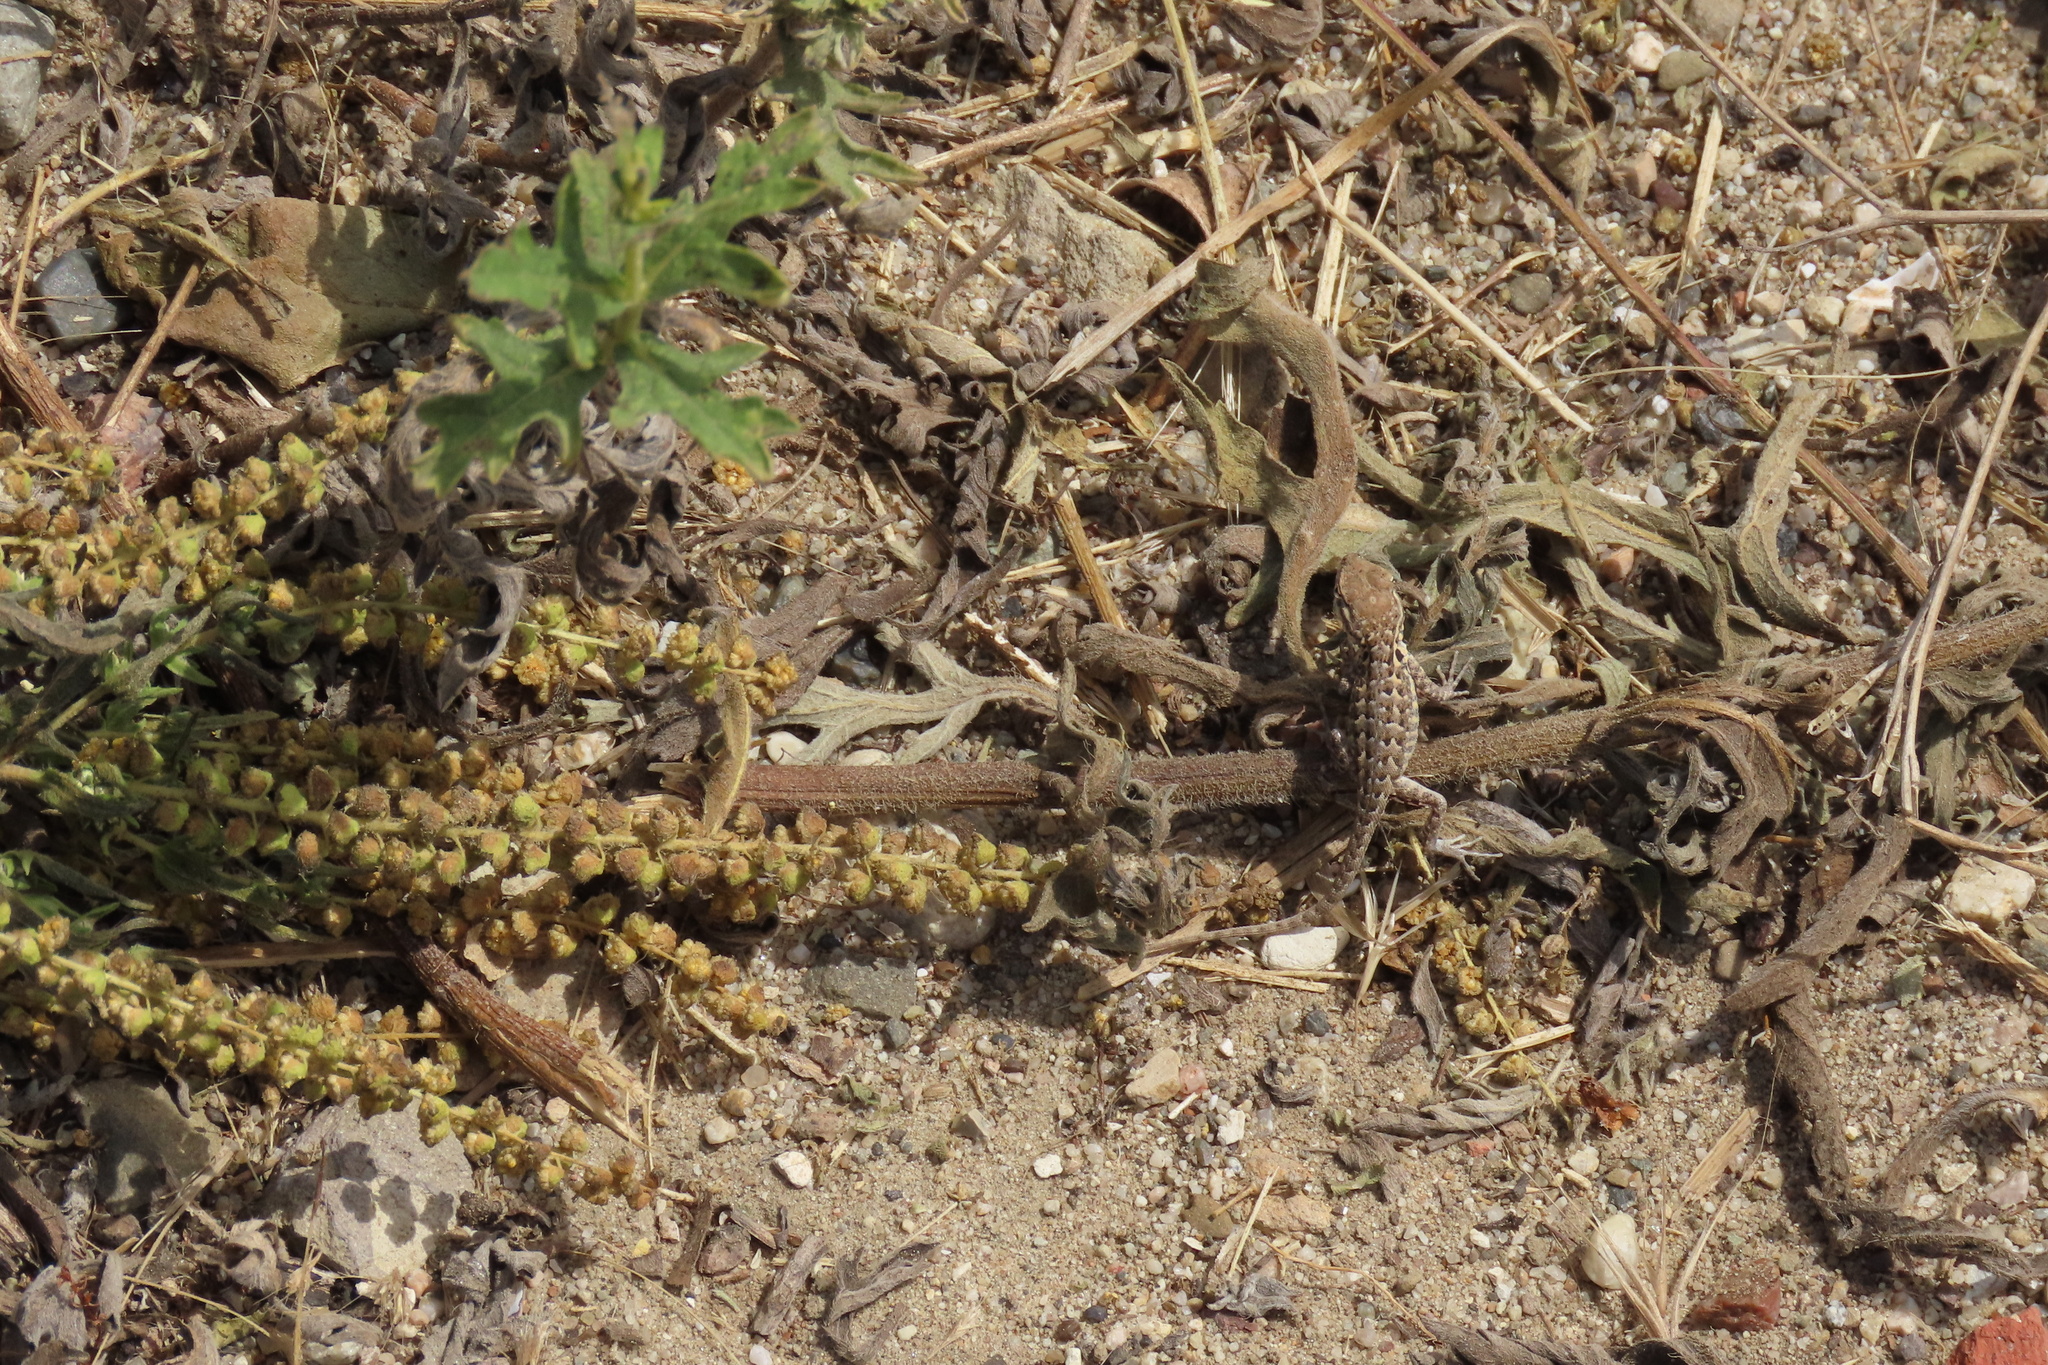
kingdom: Animalia
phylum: Chordata
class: Squamata
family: Phrynosomatidae
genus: Uta
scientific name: Uta stansburiana
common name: Side-blotched lizard
